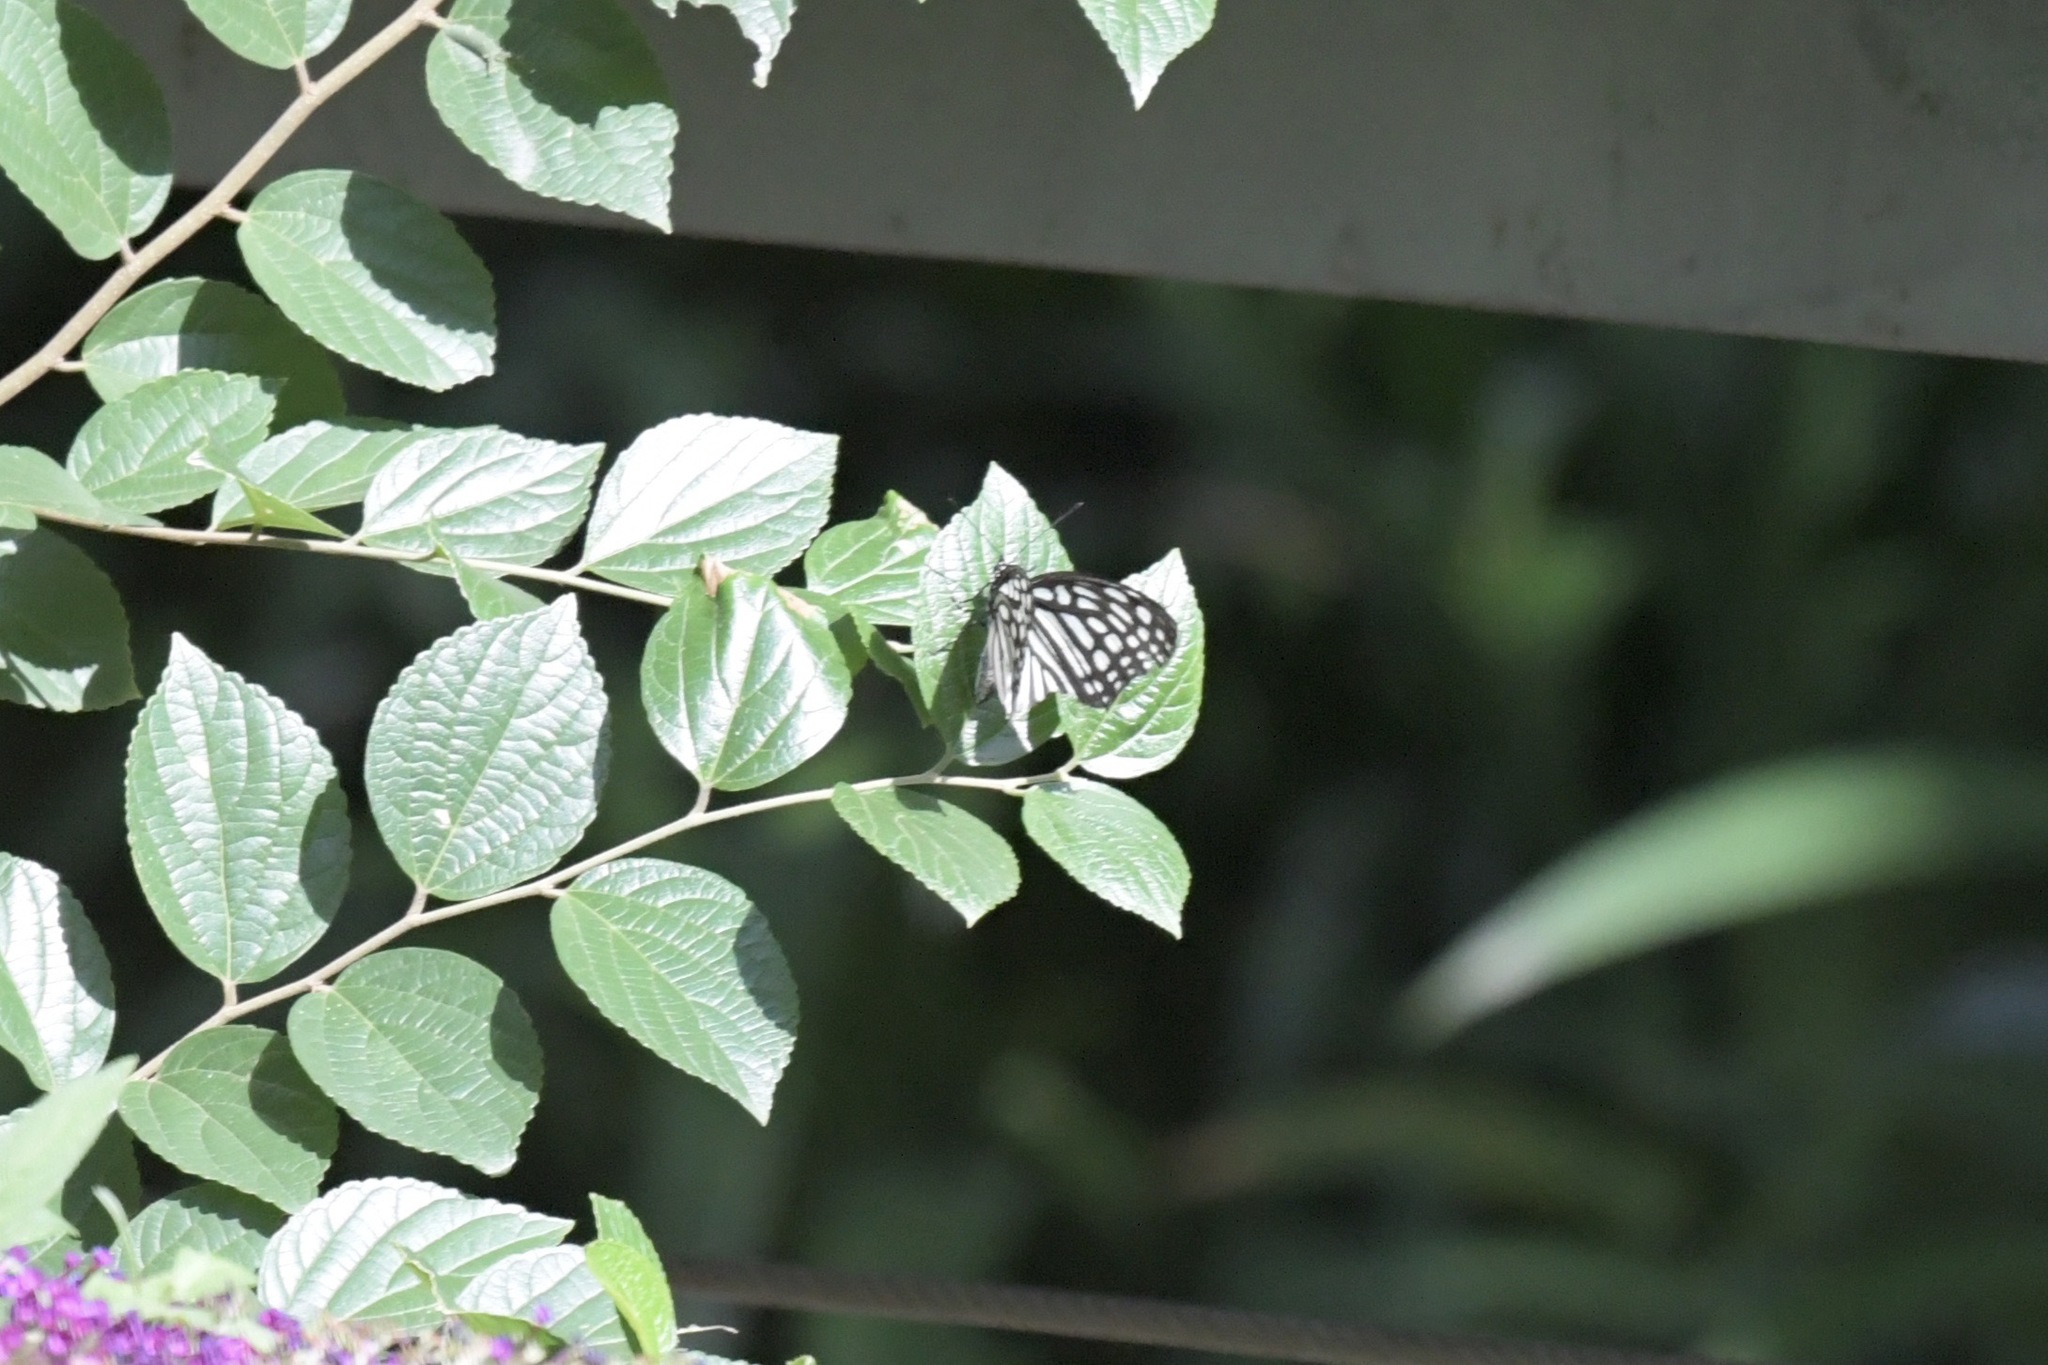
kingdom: Animalia
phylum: Arthropoda
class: Insecta
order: Lepidoptera
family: Nymphalidae
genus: Hestina
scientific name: Hestina assimilis
